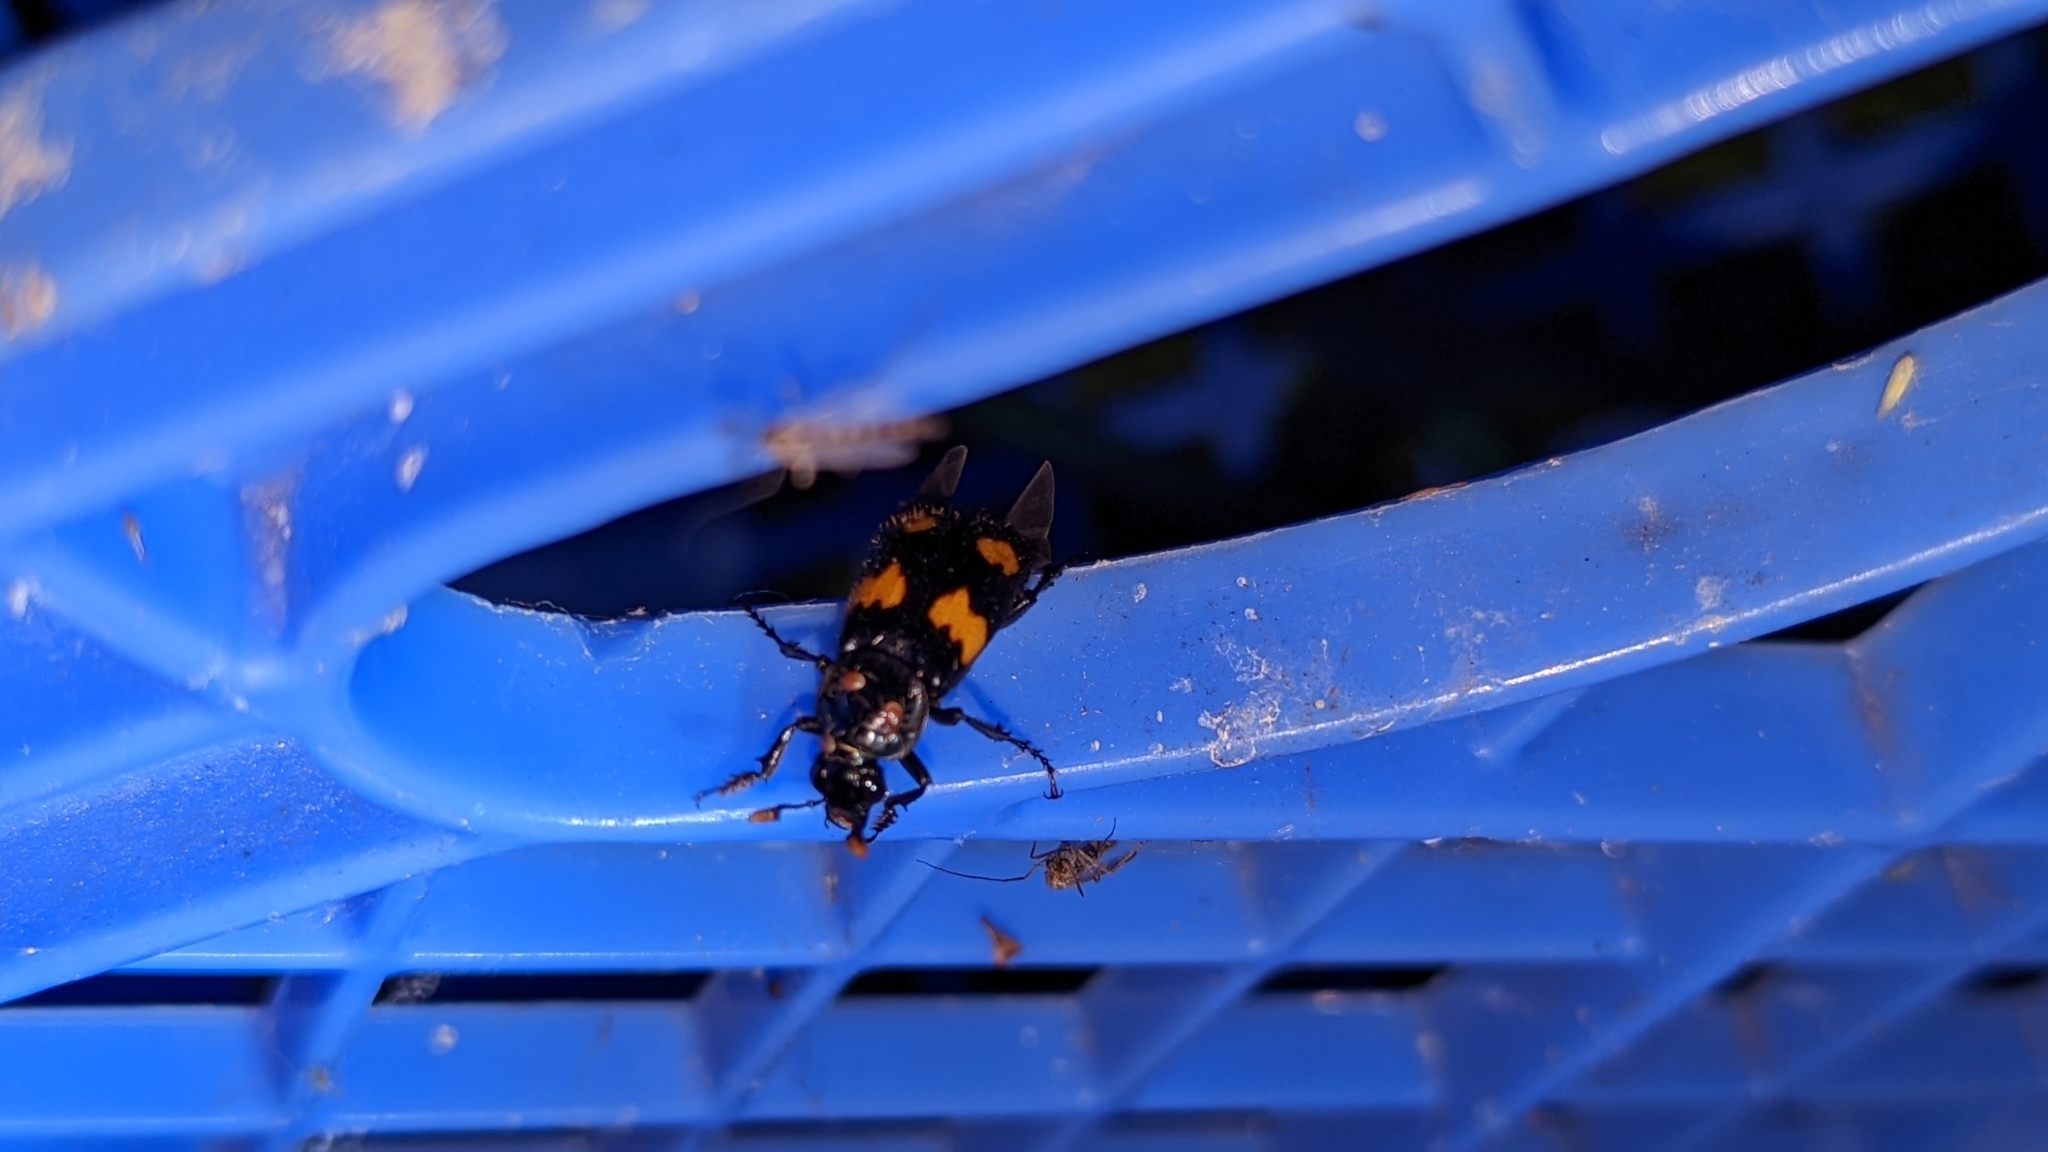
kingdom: Animalia
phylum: Arthropoda
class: Insecta
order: Coleoptera
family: Staphylinidae
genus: Nicrophorus
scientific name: Nicrophorus orbicollis
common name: Roundneck sexton beetle
